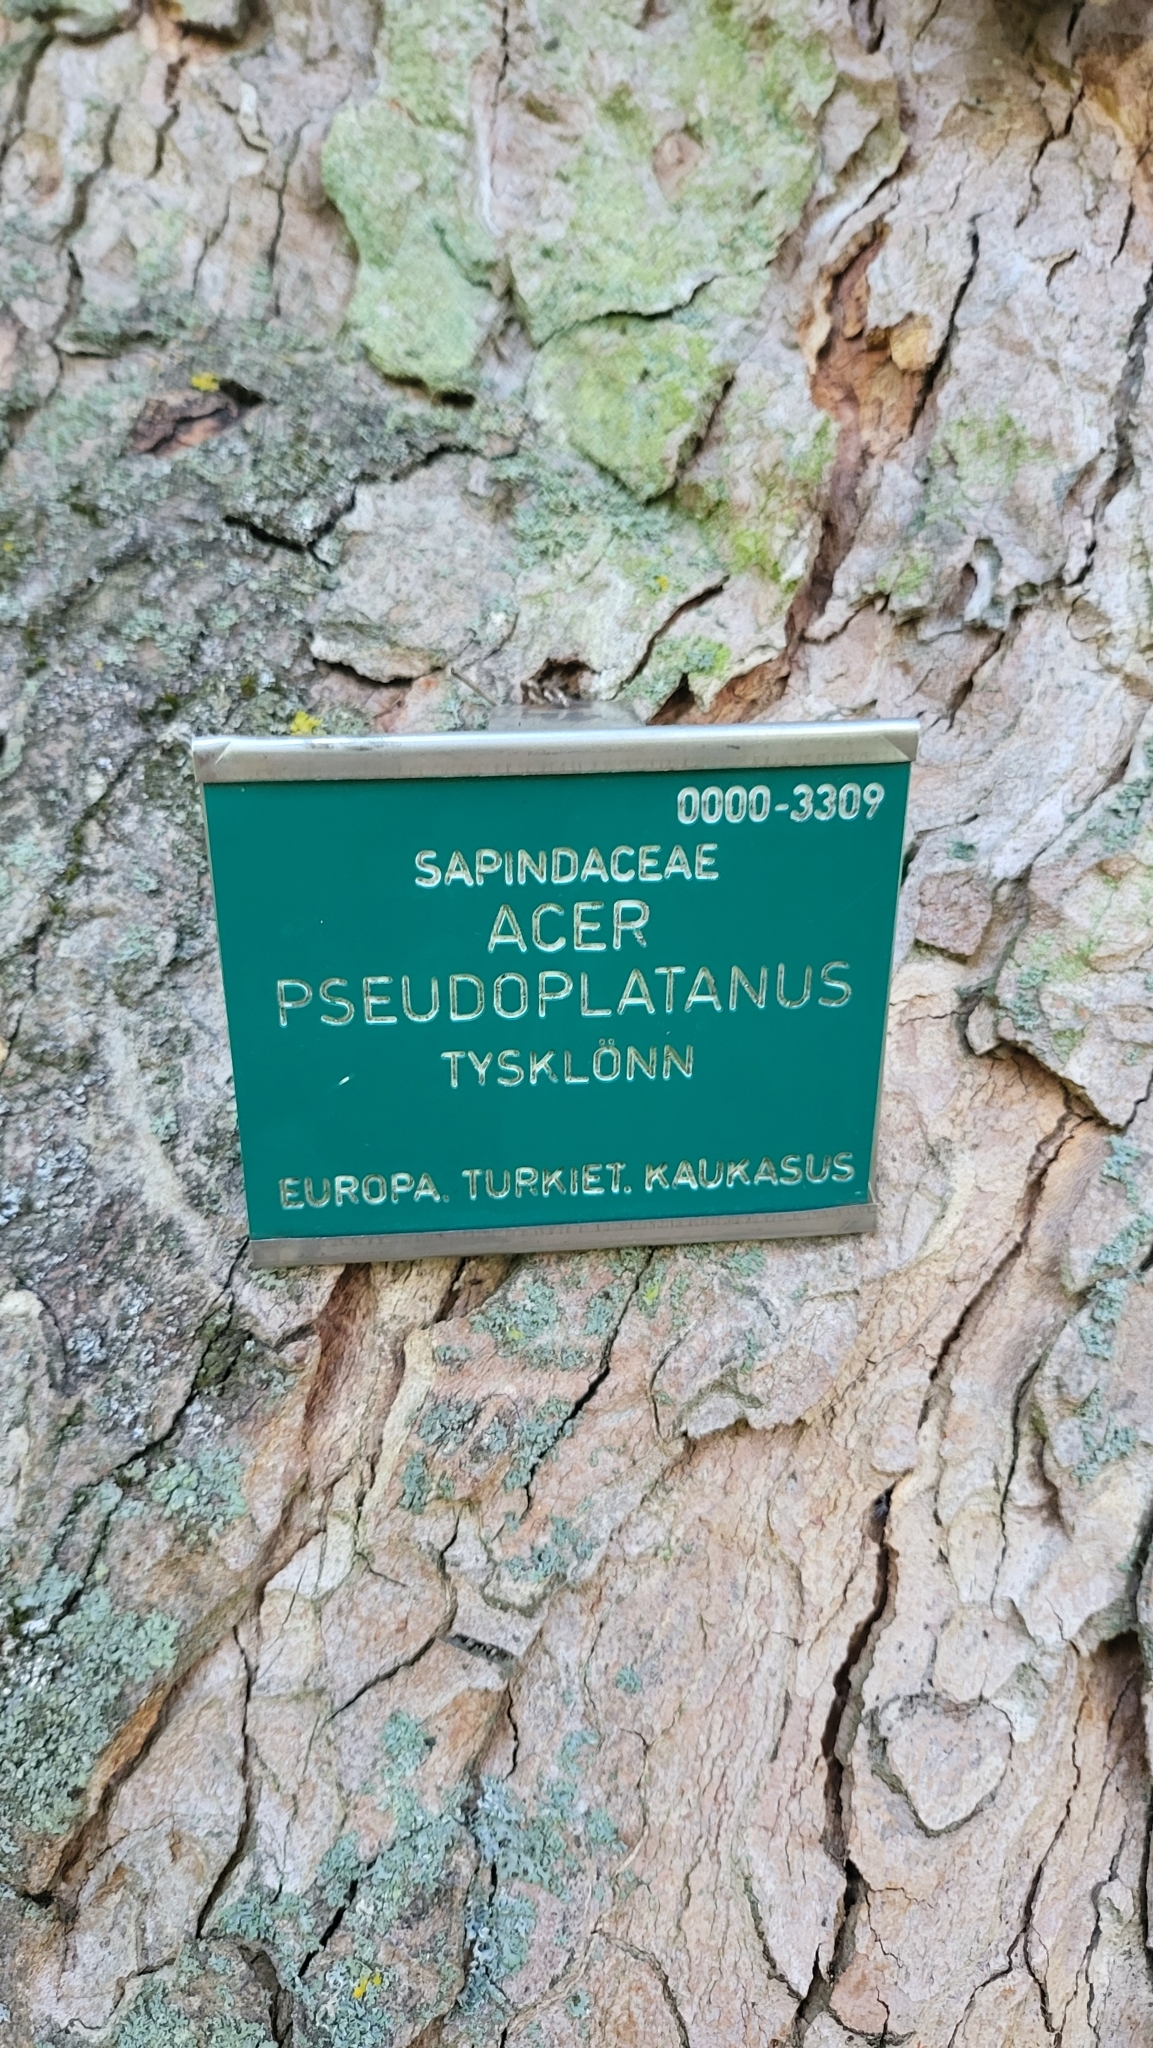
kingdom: Plantae
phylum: Tracheophyta
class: Magnoliopsida
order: Sapindales
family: Sapindaceae
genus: Acer
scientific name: Acer pseudoplatanus
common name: Sycamore
